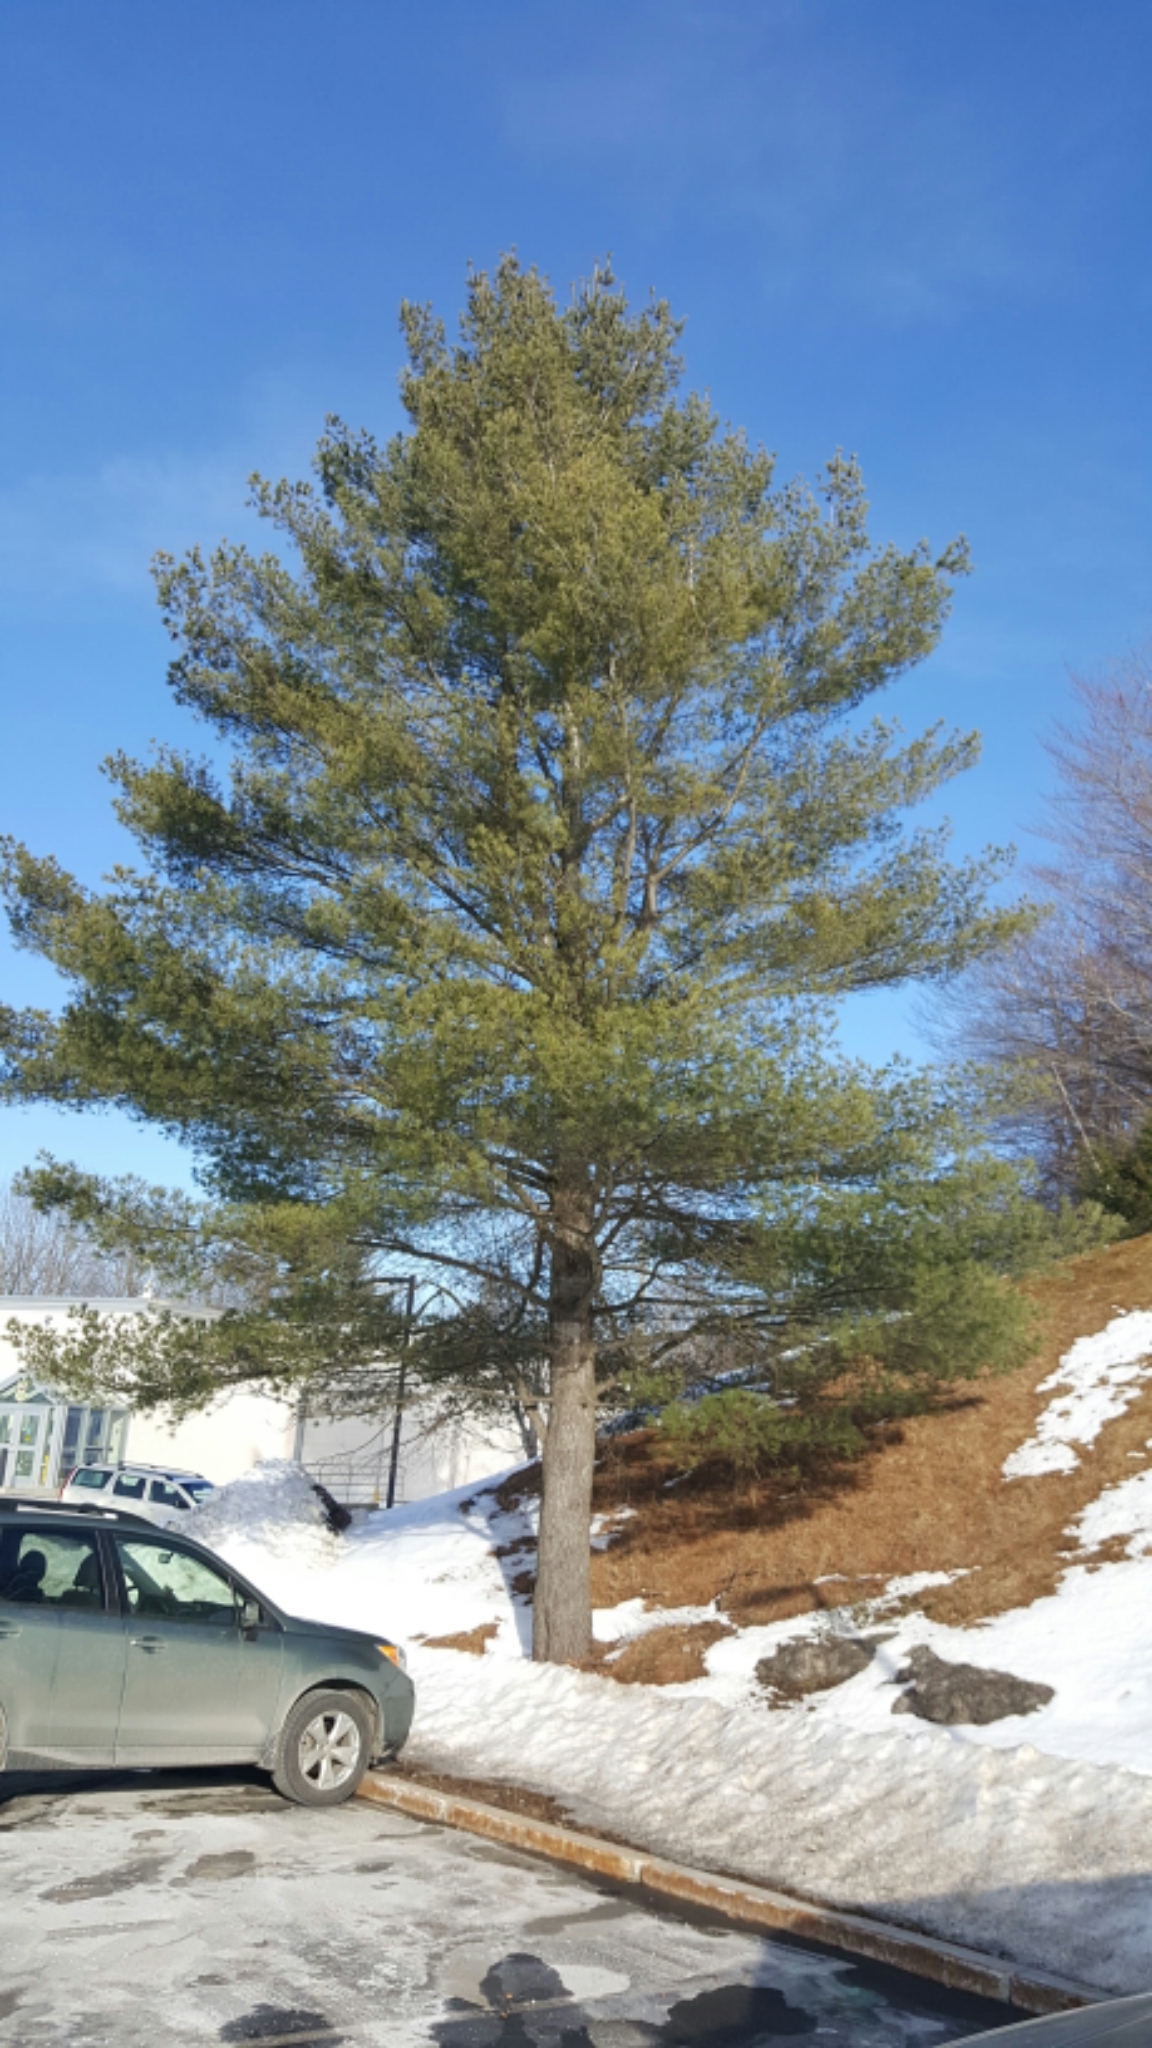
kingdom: Plantae
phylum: Tracheophyta
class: Pinopsida
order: Pinales
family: Pinaceae
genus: Pinus
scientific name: Pinus strobus
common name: Weymouth pine
